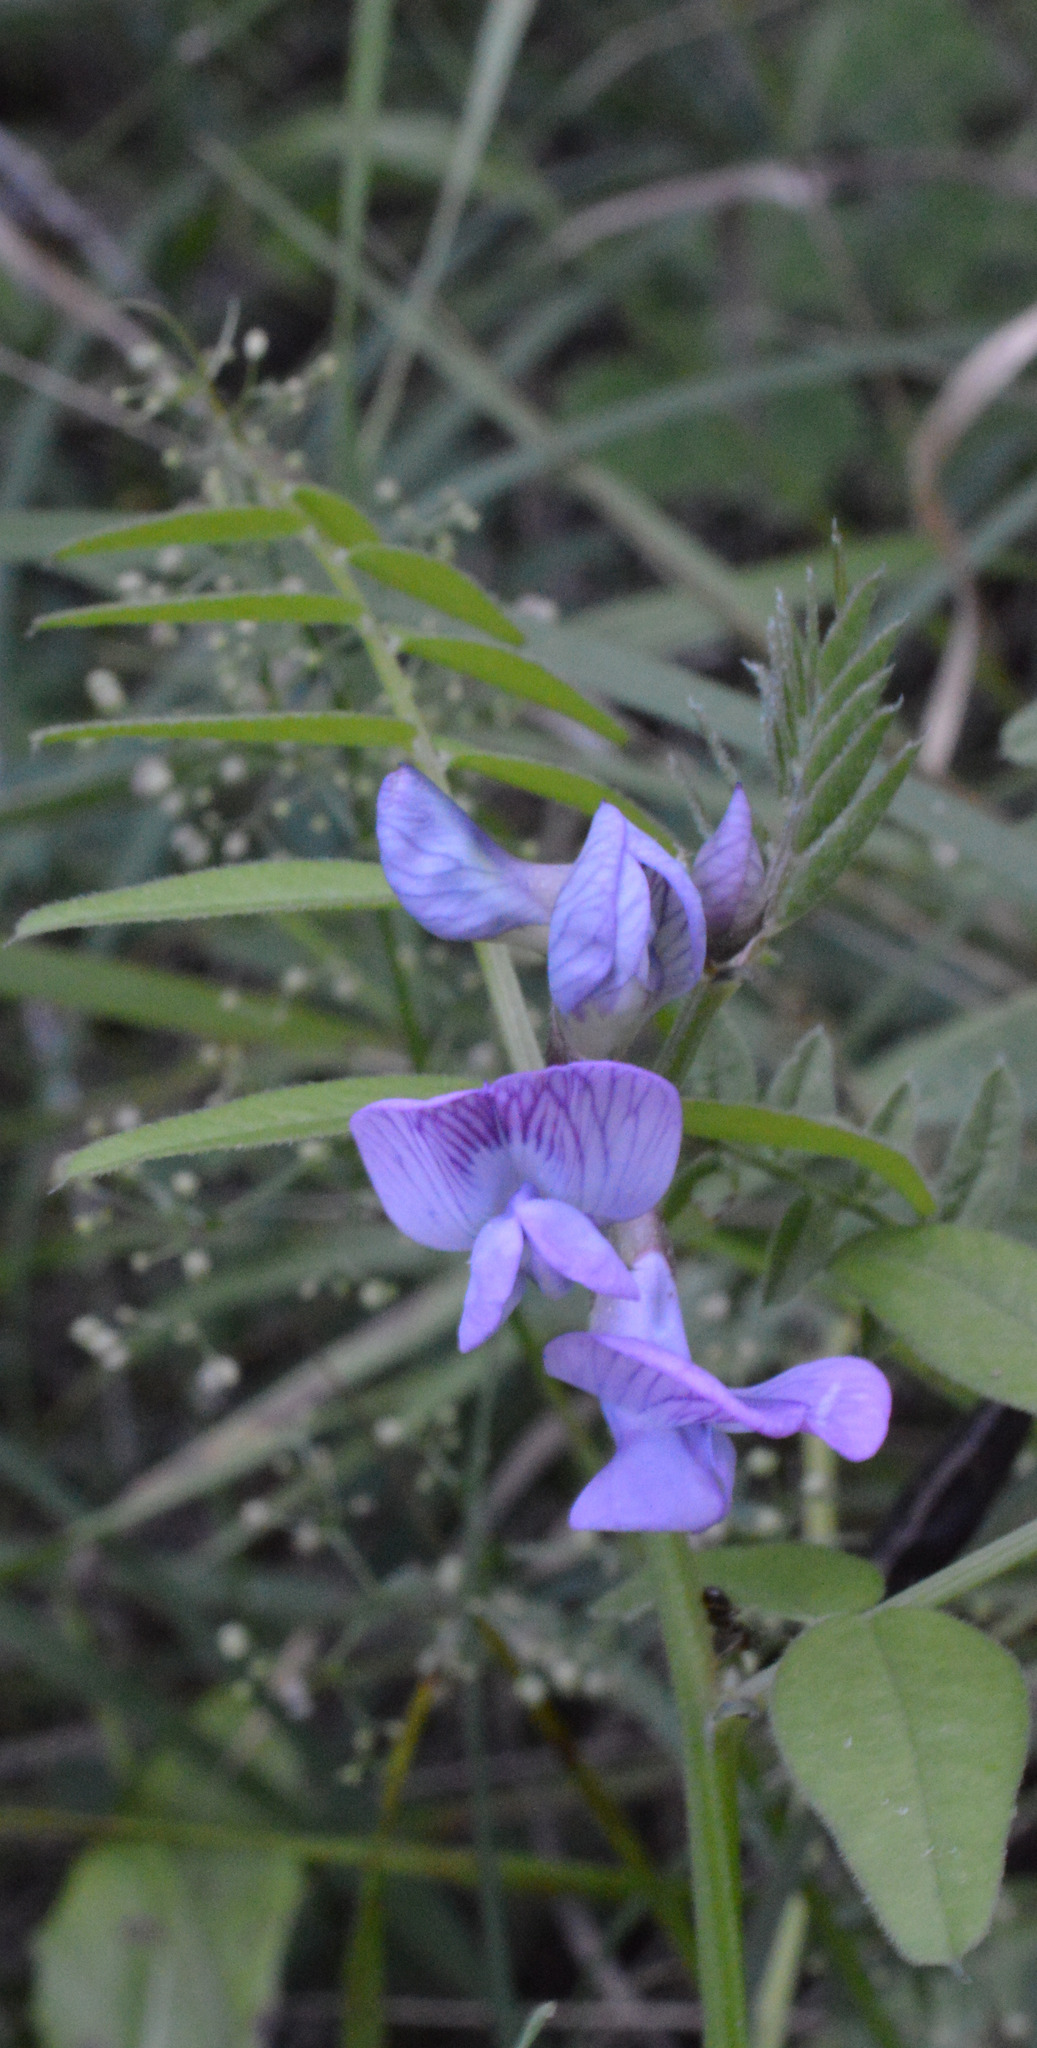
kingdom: Plantae
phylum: Tracheophyta
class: Magnoliopsida
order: Fabales
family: Fabaceae
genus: Vicia
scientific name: Vicia sepium
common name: Bush vetch
